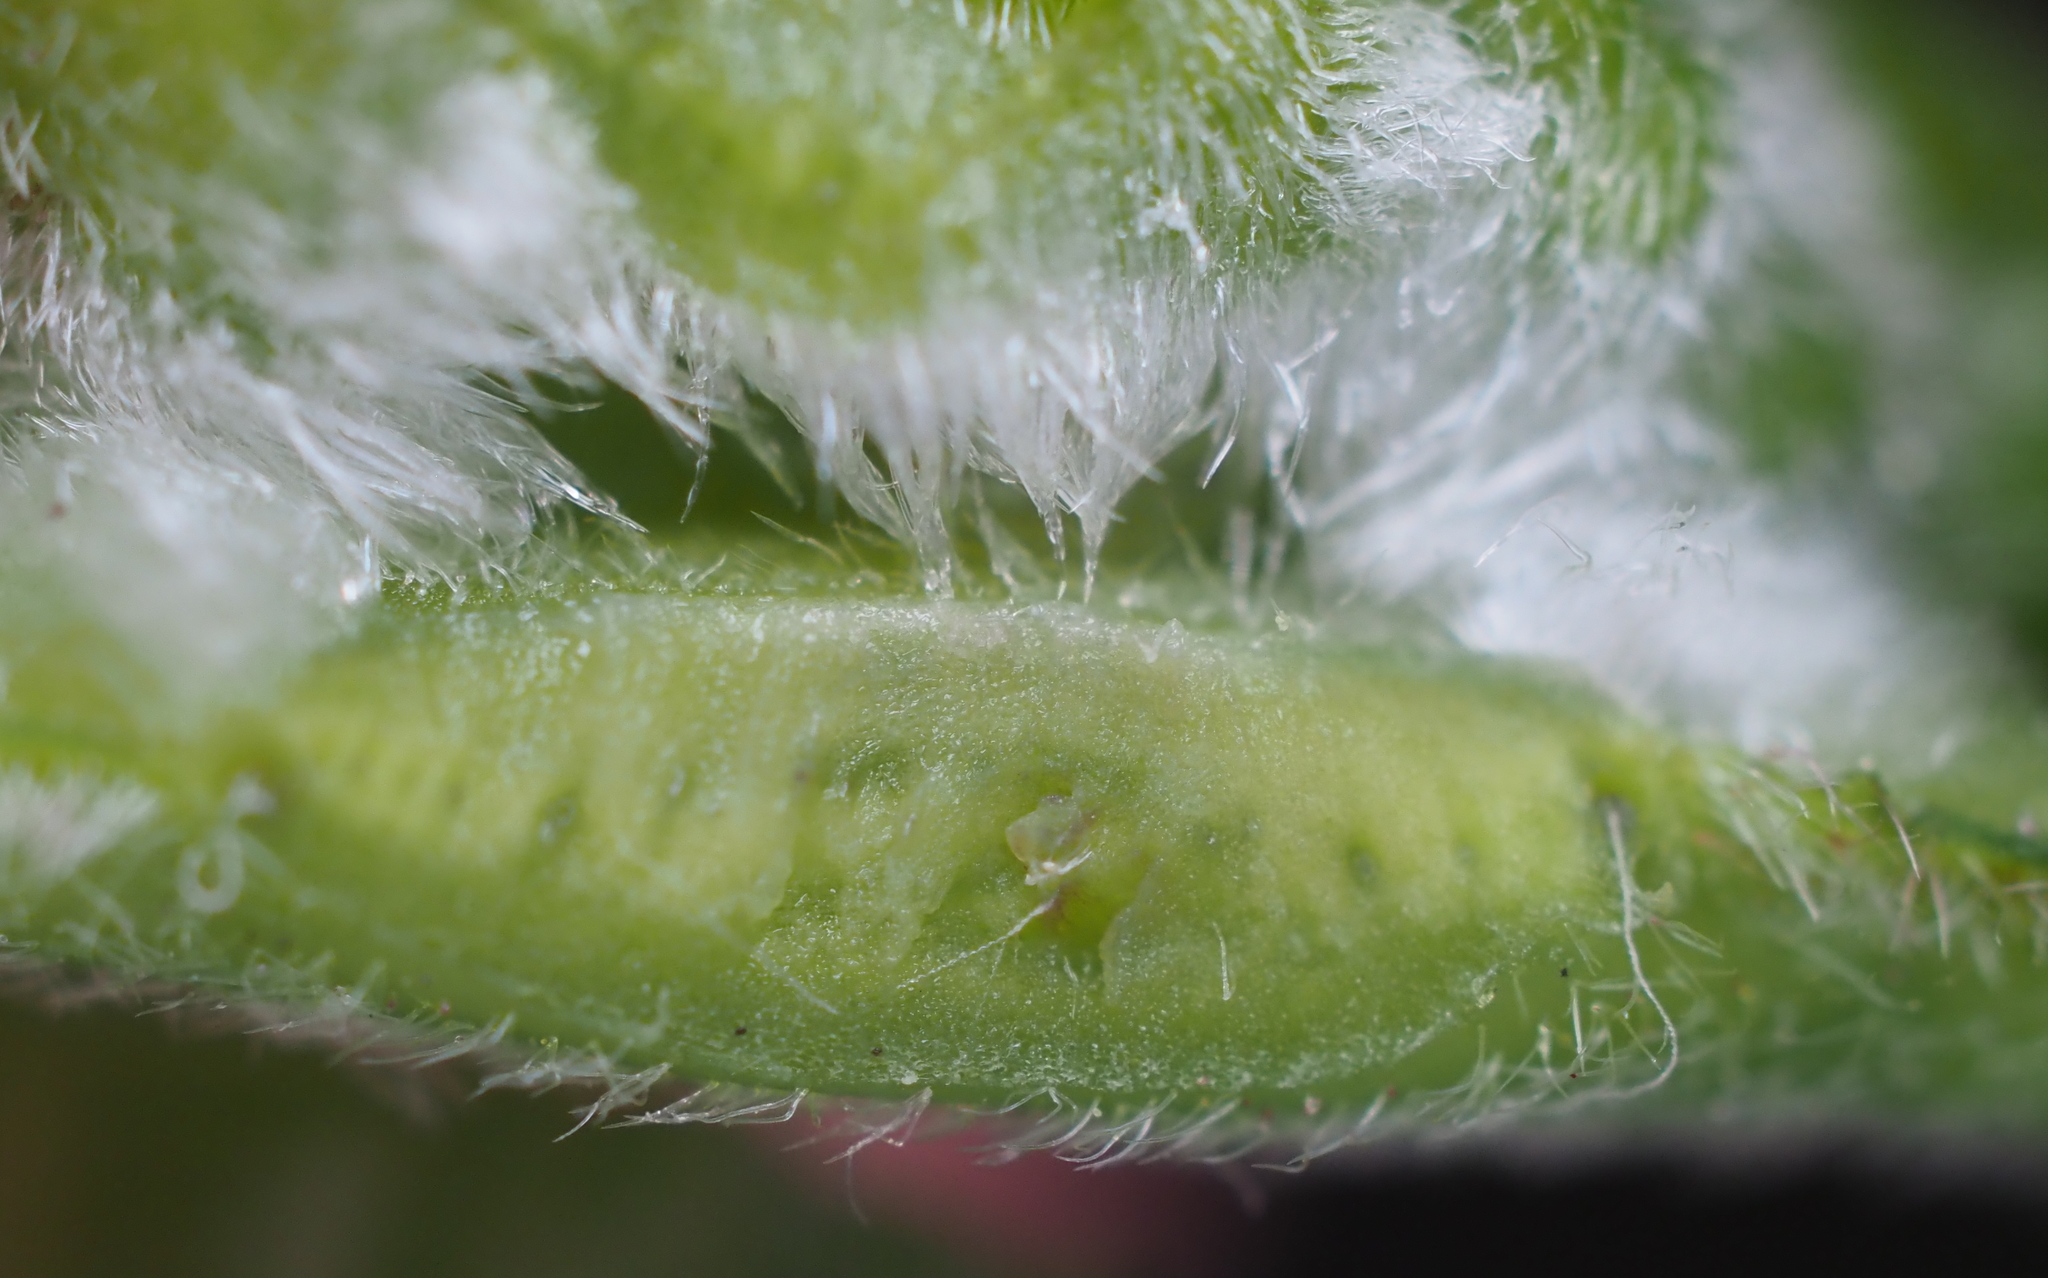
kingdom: Animalia
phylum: Arthropoda
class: Insecta
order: Diptera
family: Cecidomyiidae
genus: Macrodiplosis
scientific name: Macrodiplosis niveipila
